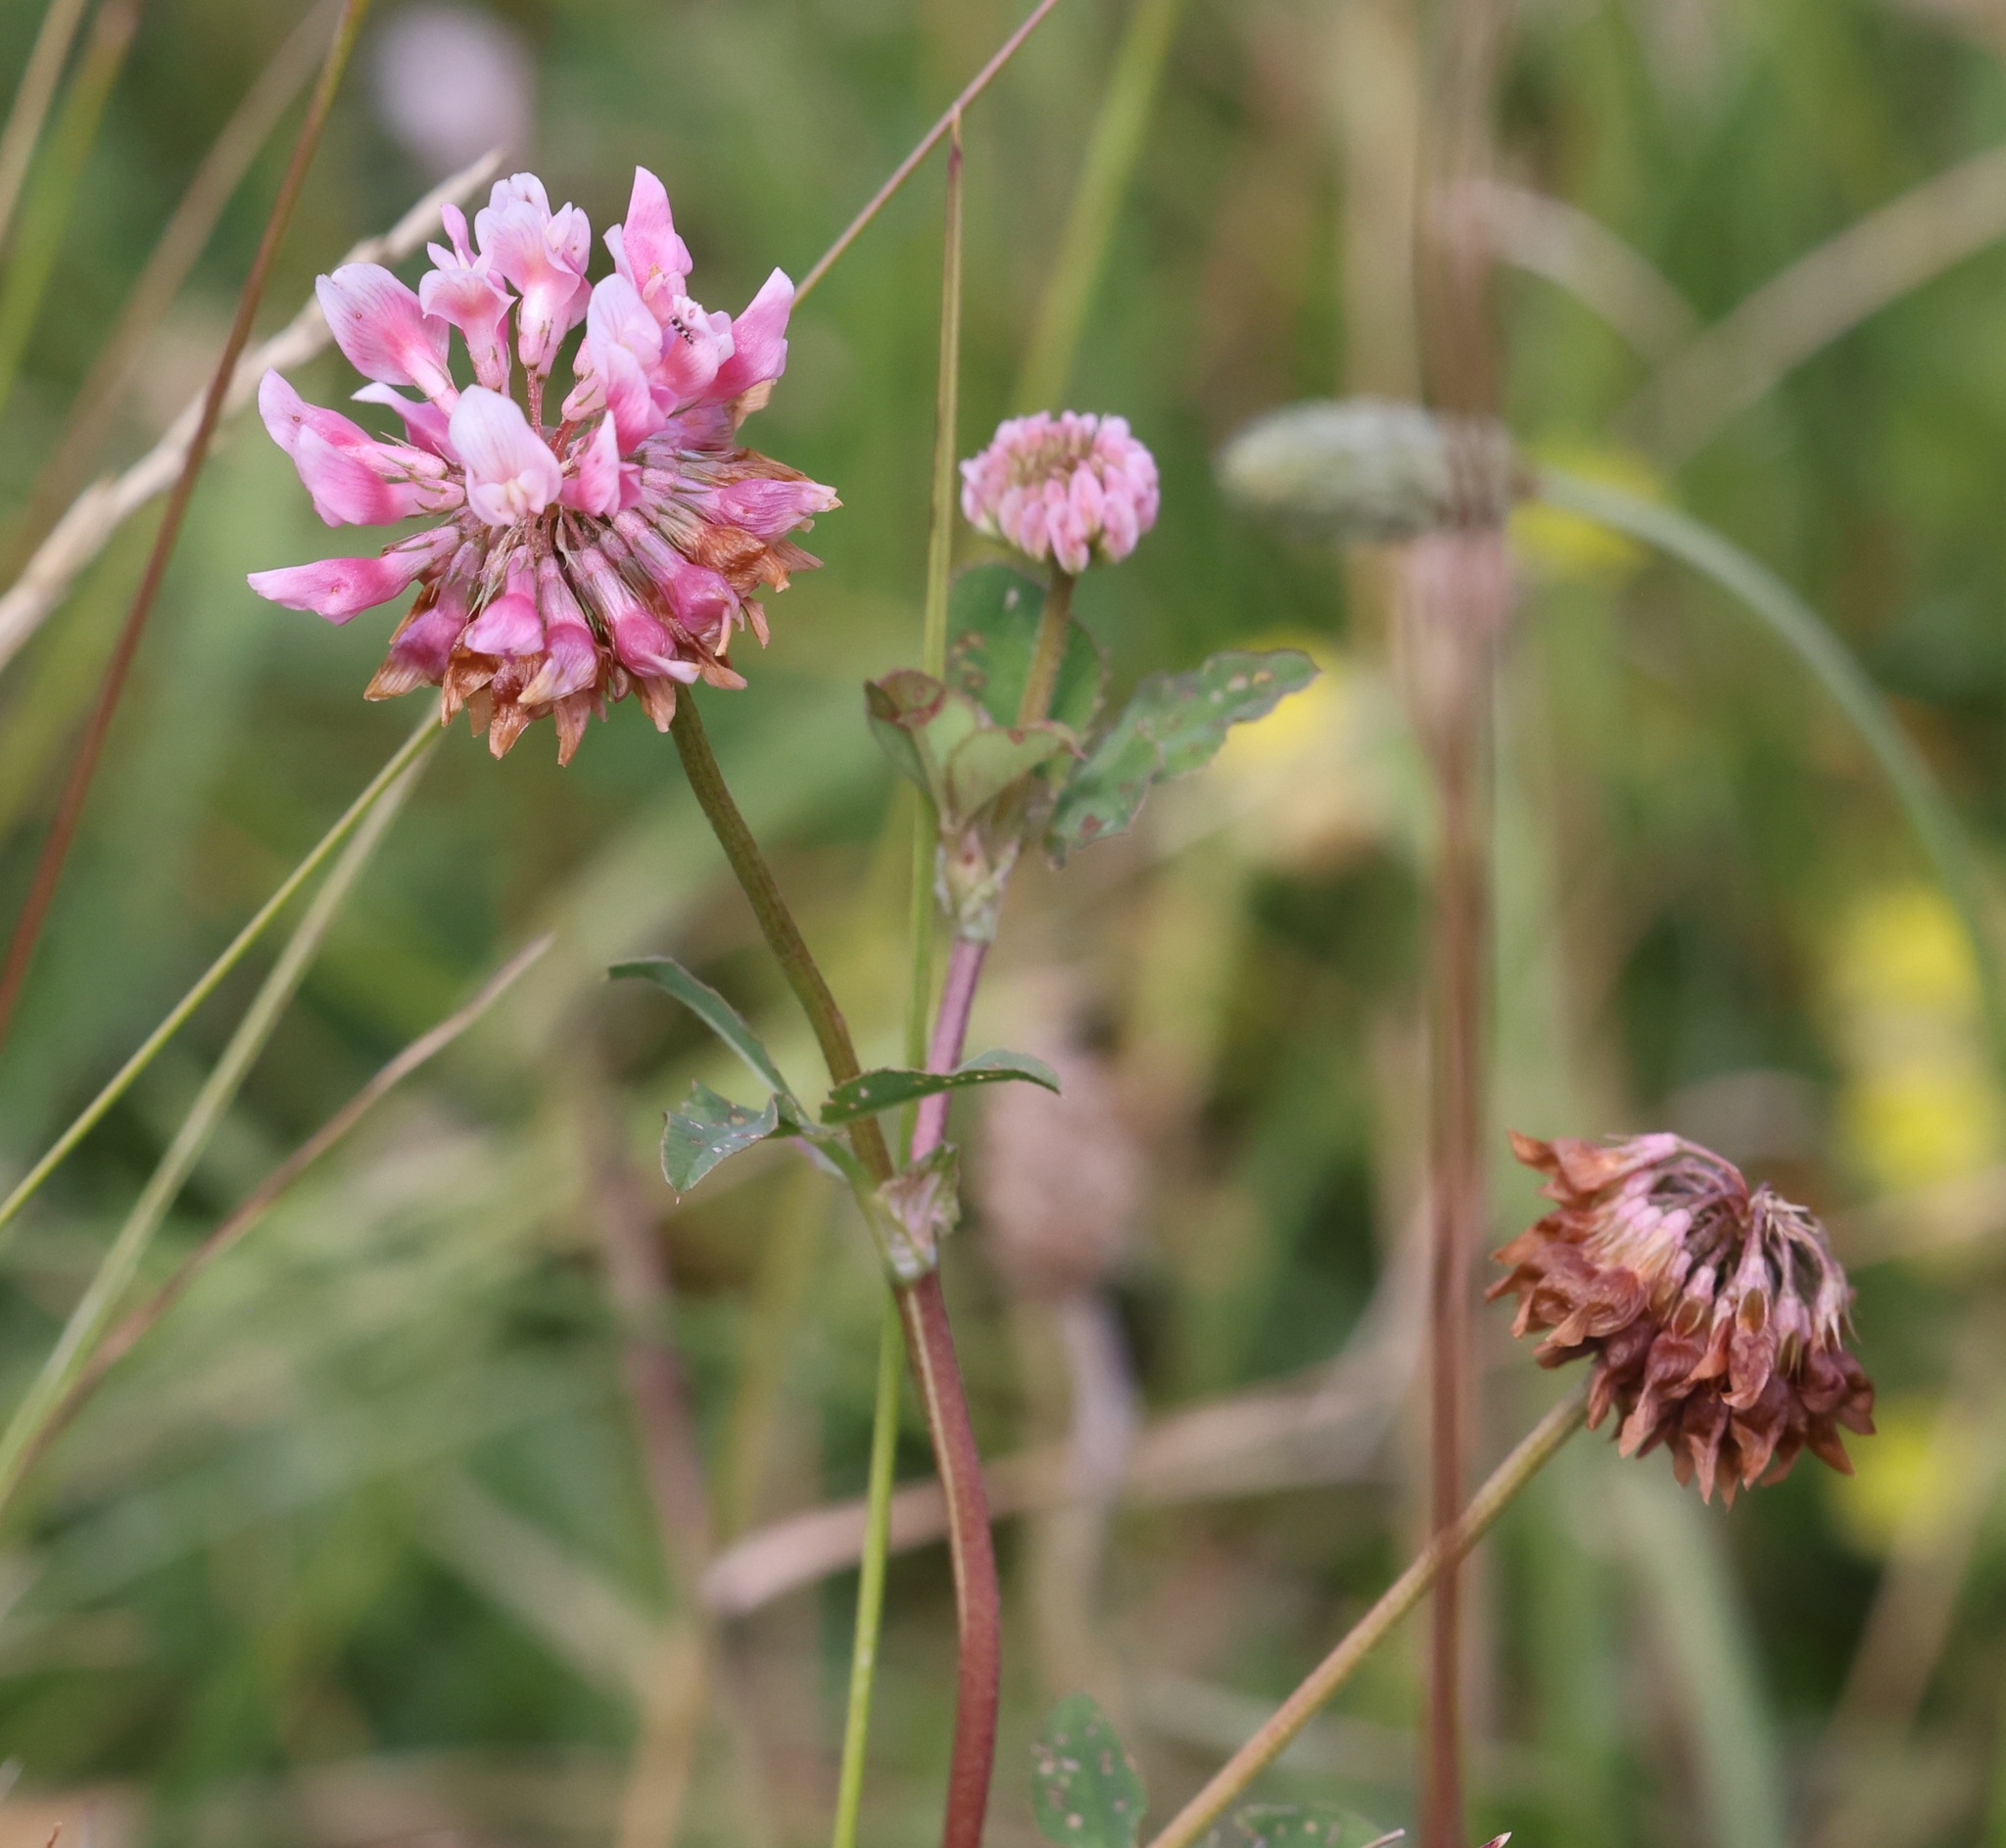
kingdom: Plantae
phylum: Tracheophyta
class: Magnoliopsida
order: Fabales
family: Fabaceae
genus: Trifolium
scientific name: Trifolium pratense
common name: Red clover
